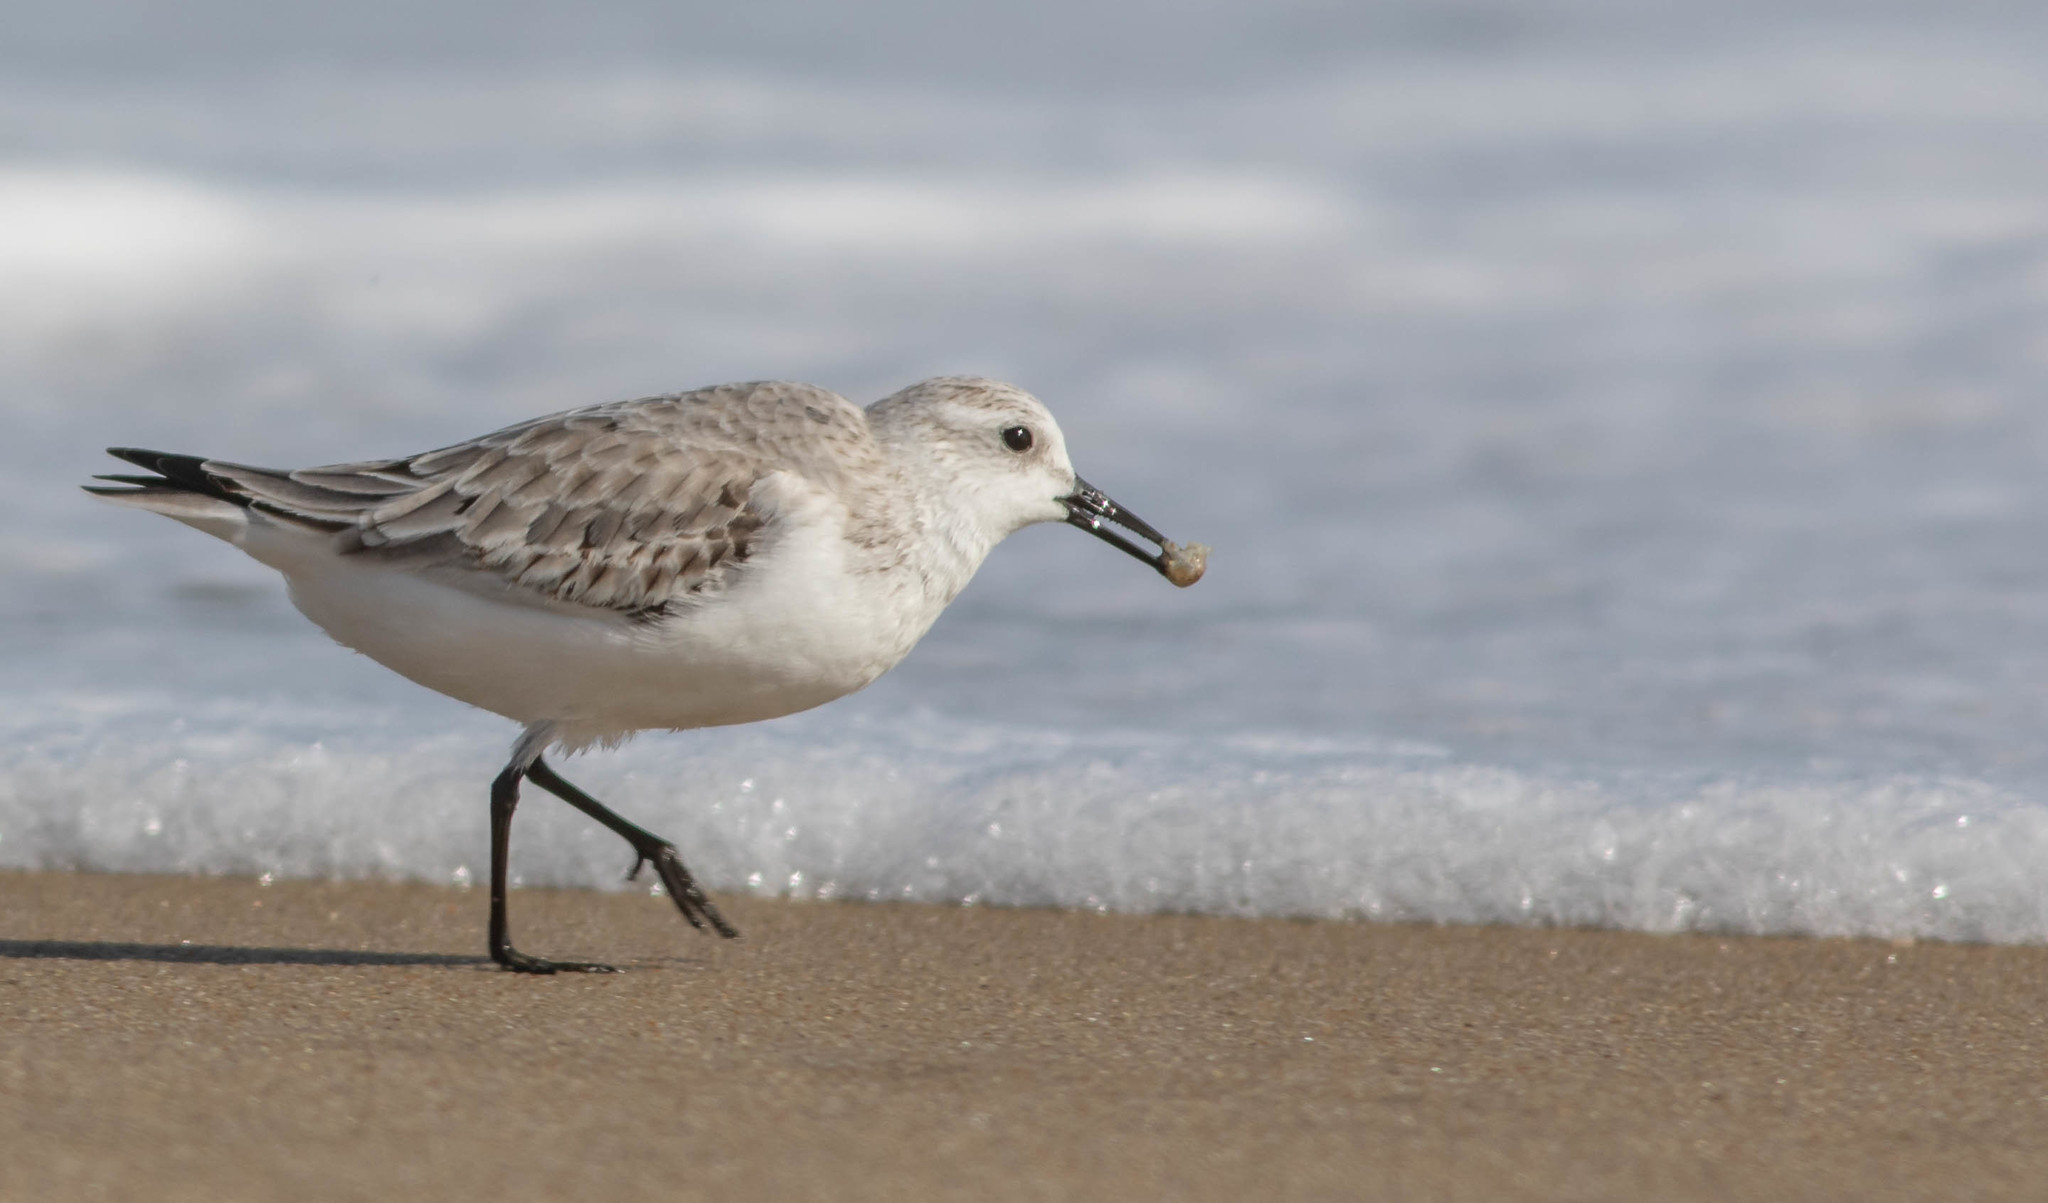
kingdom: Animalia
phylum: Chordata
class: Aves
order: Charadriiformes
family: Scolopacidae
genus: Calidris
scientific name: Calidris alba
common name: Sanderling
